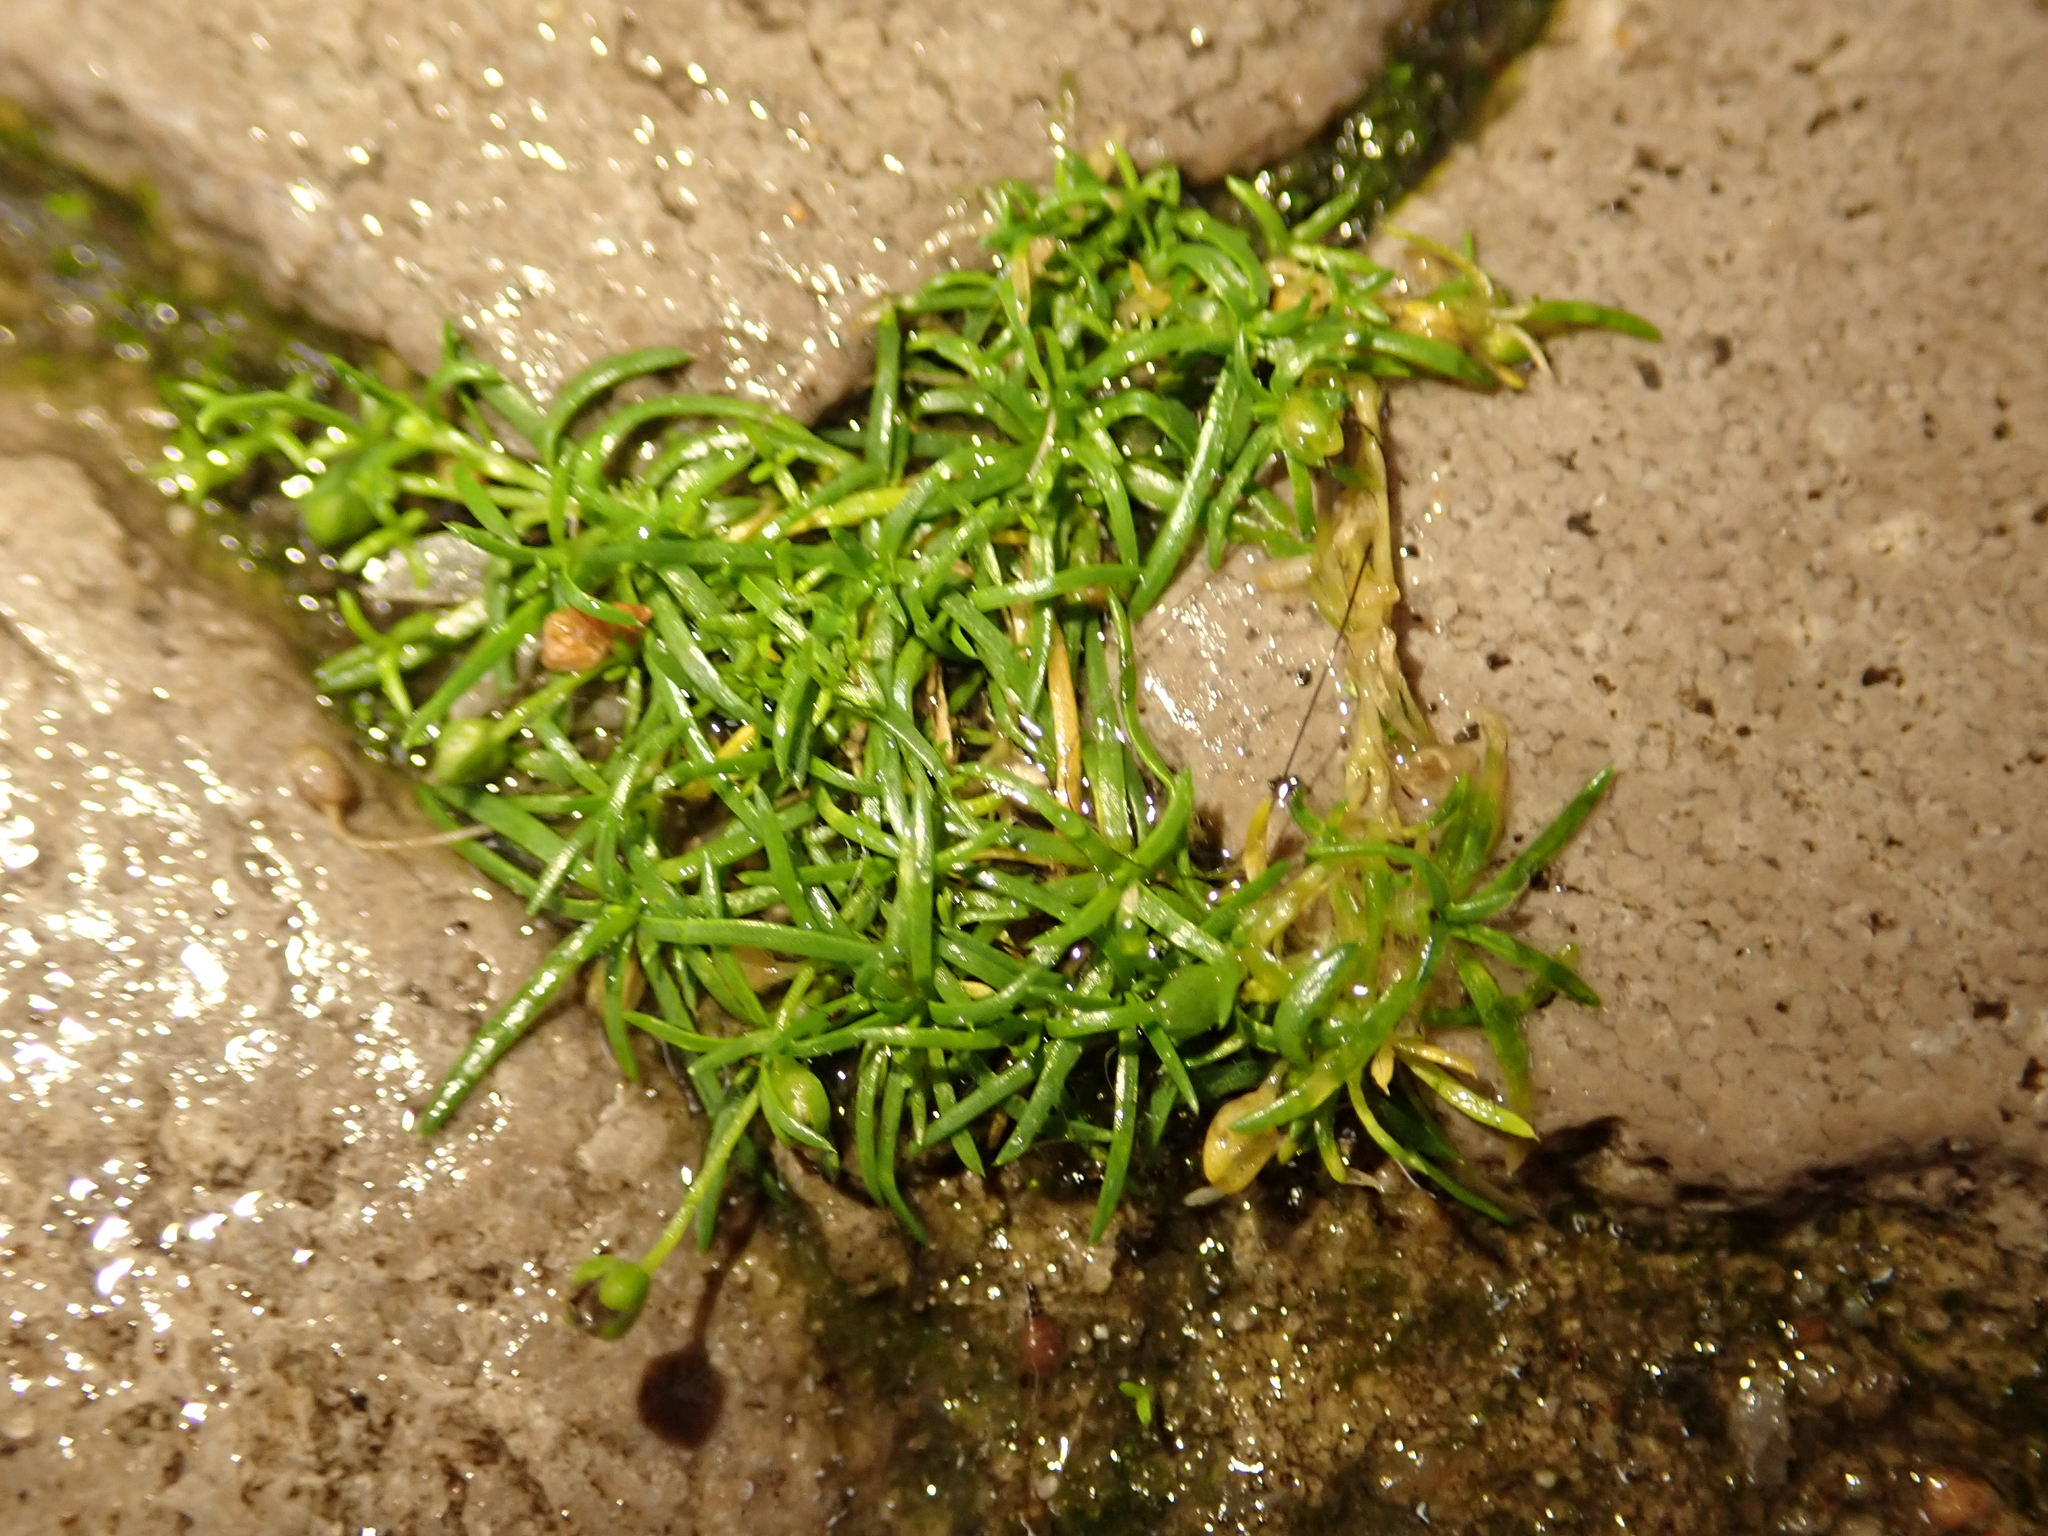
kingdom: Plantae
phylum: Tracheophyta
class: Magnoliopsida
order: Caryophyllales
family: Caryophyllaceae
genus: Sagina
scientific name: Sagina procumbens
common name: Procumbent pearlwort
